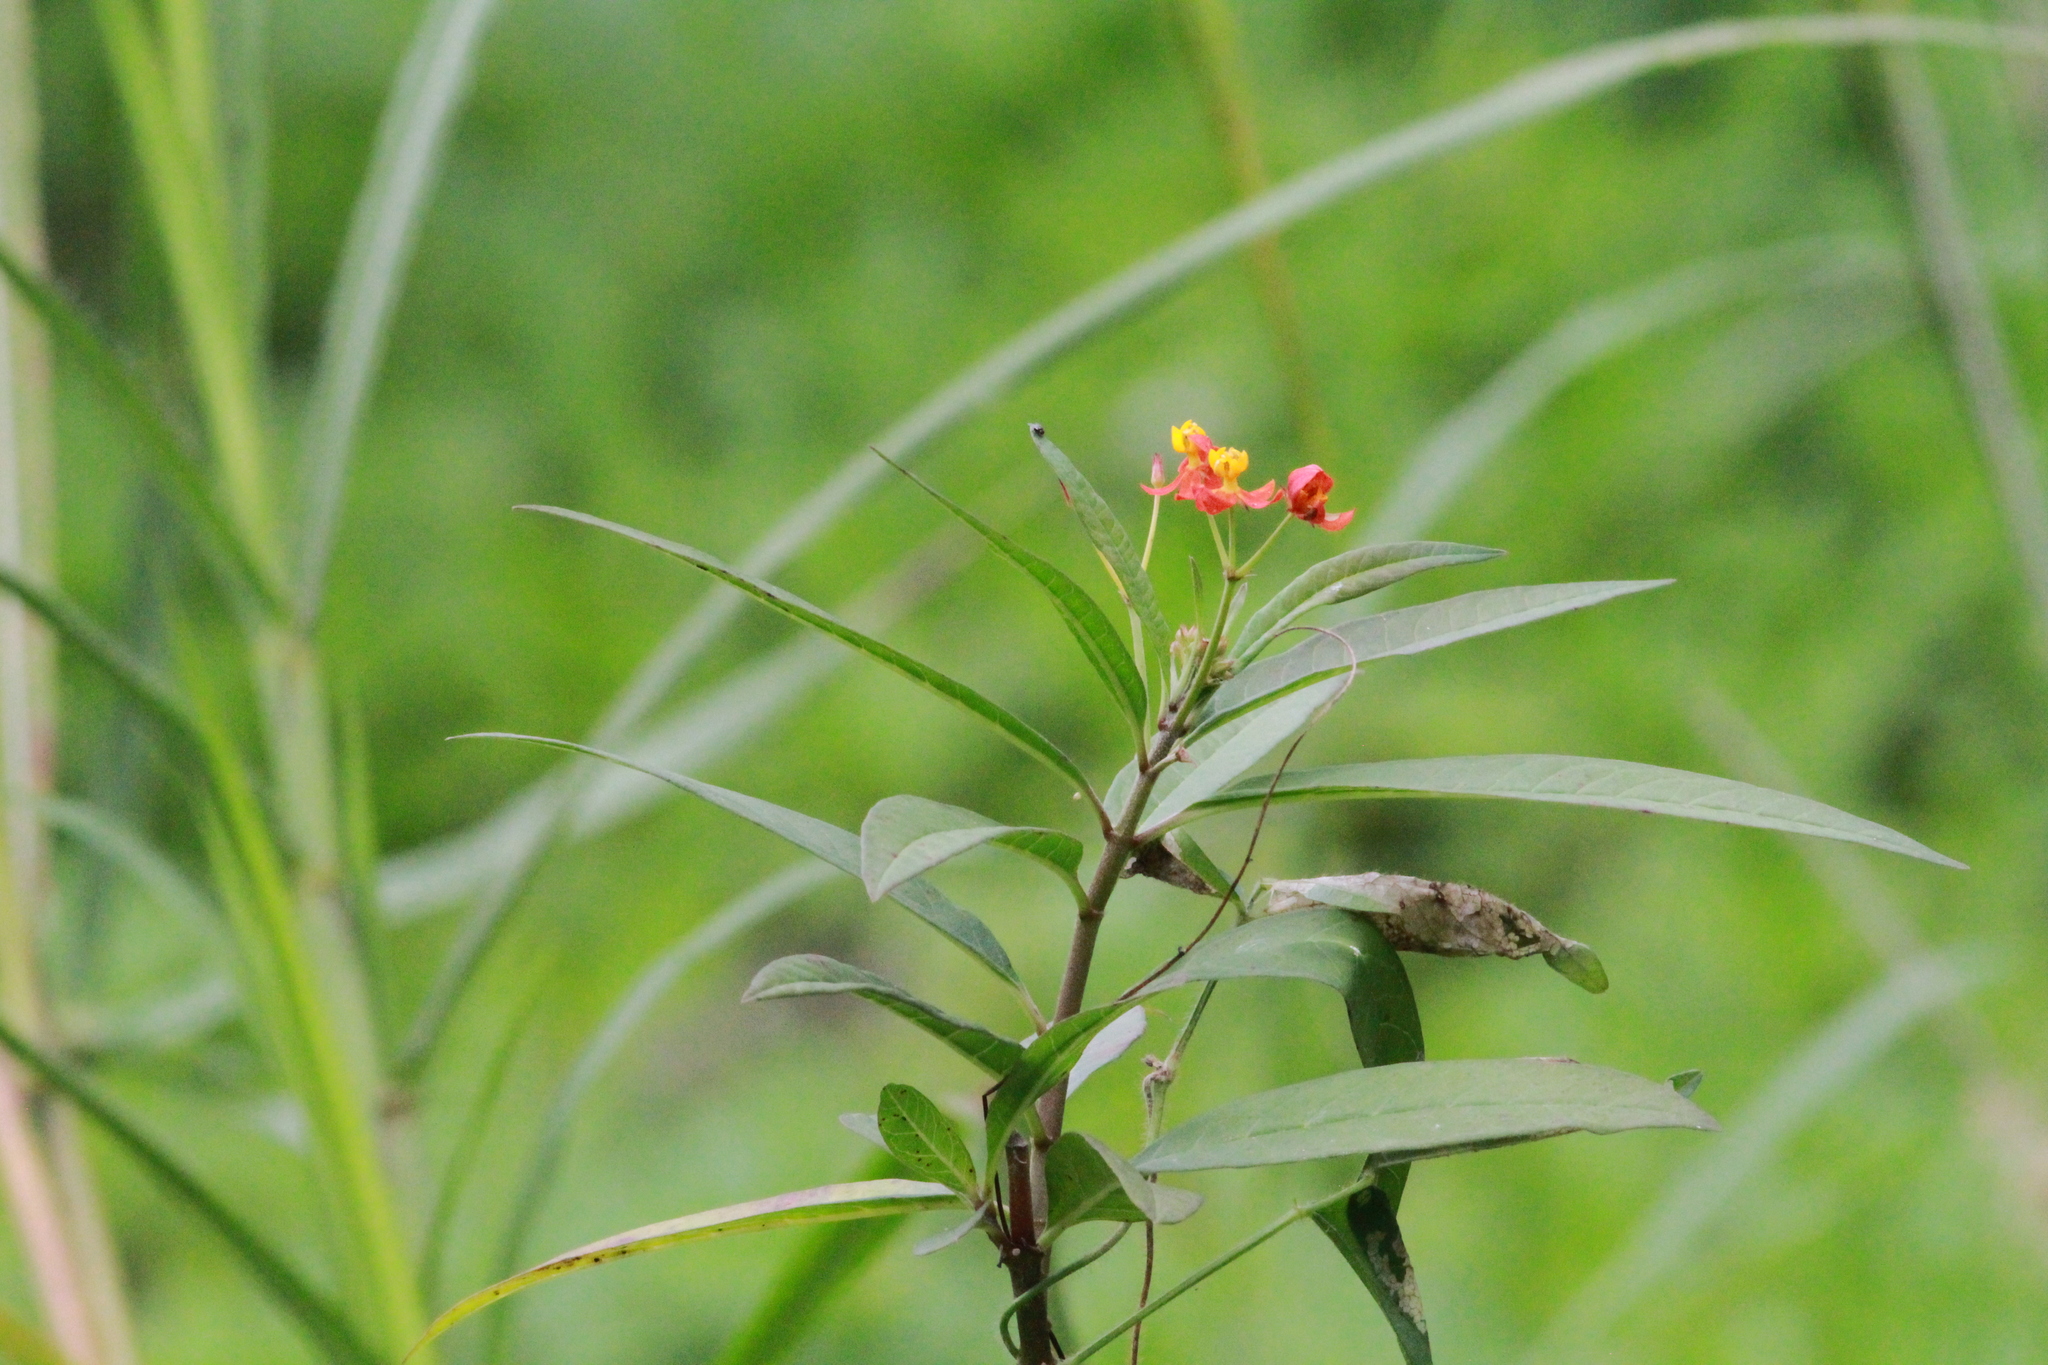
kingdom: Plantae
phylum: Tracheophyta
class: Magnoliopsida
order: Gentianales
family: Apocynaceae
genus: Asclepias
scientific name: Asclepias curassavica
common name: Bloodflower
